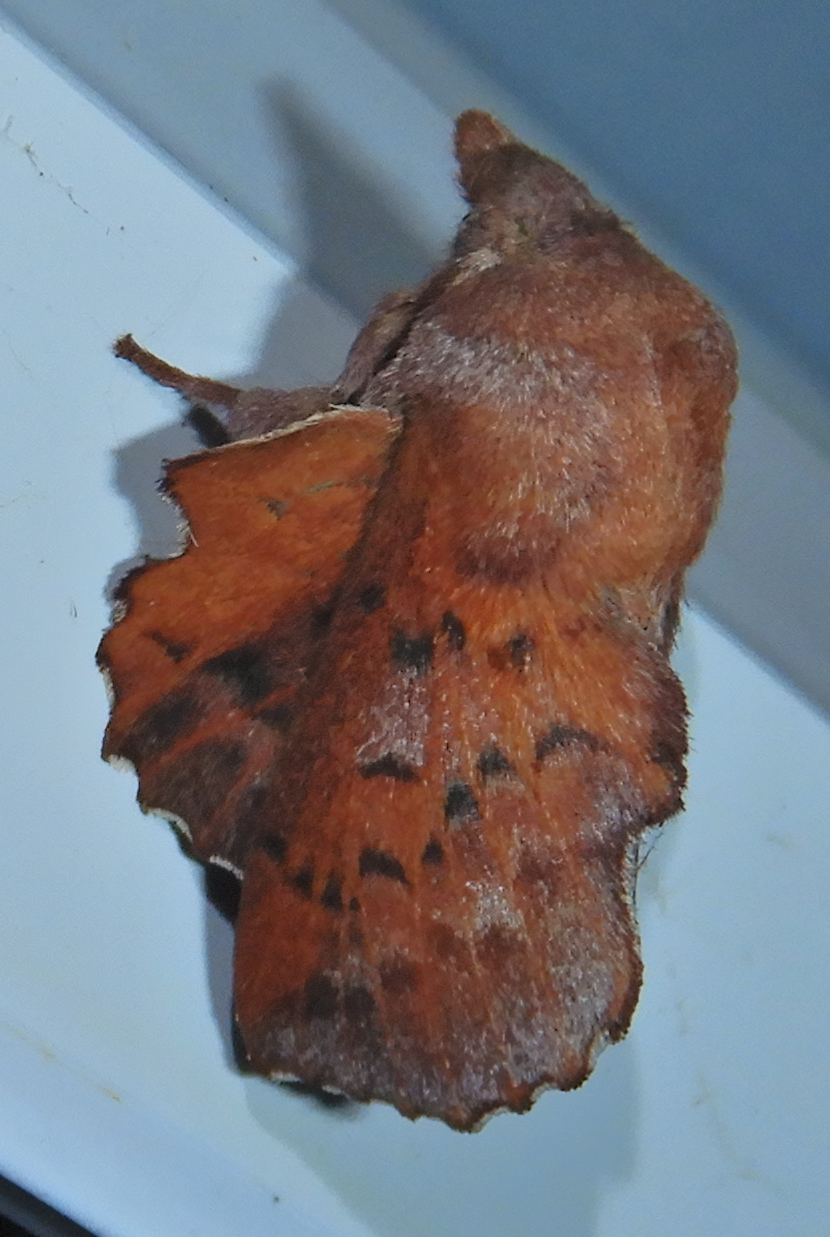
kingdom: Animalia
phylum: Arthropoda
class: Insecta
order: Lepidoptera
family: Lasiocampidae
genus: Phyllodesma
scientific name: Phyllodesma americana
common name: American lappet moth
